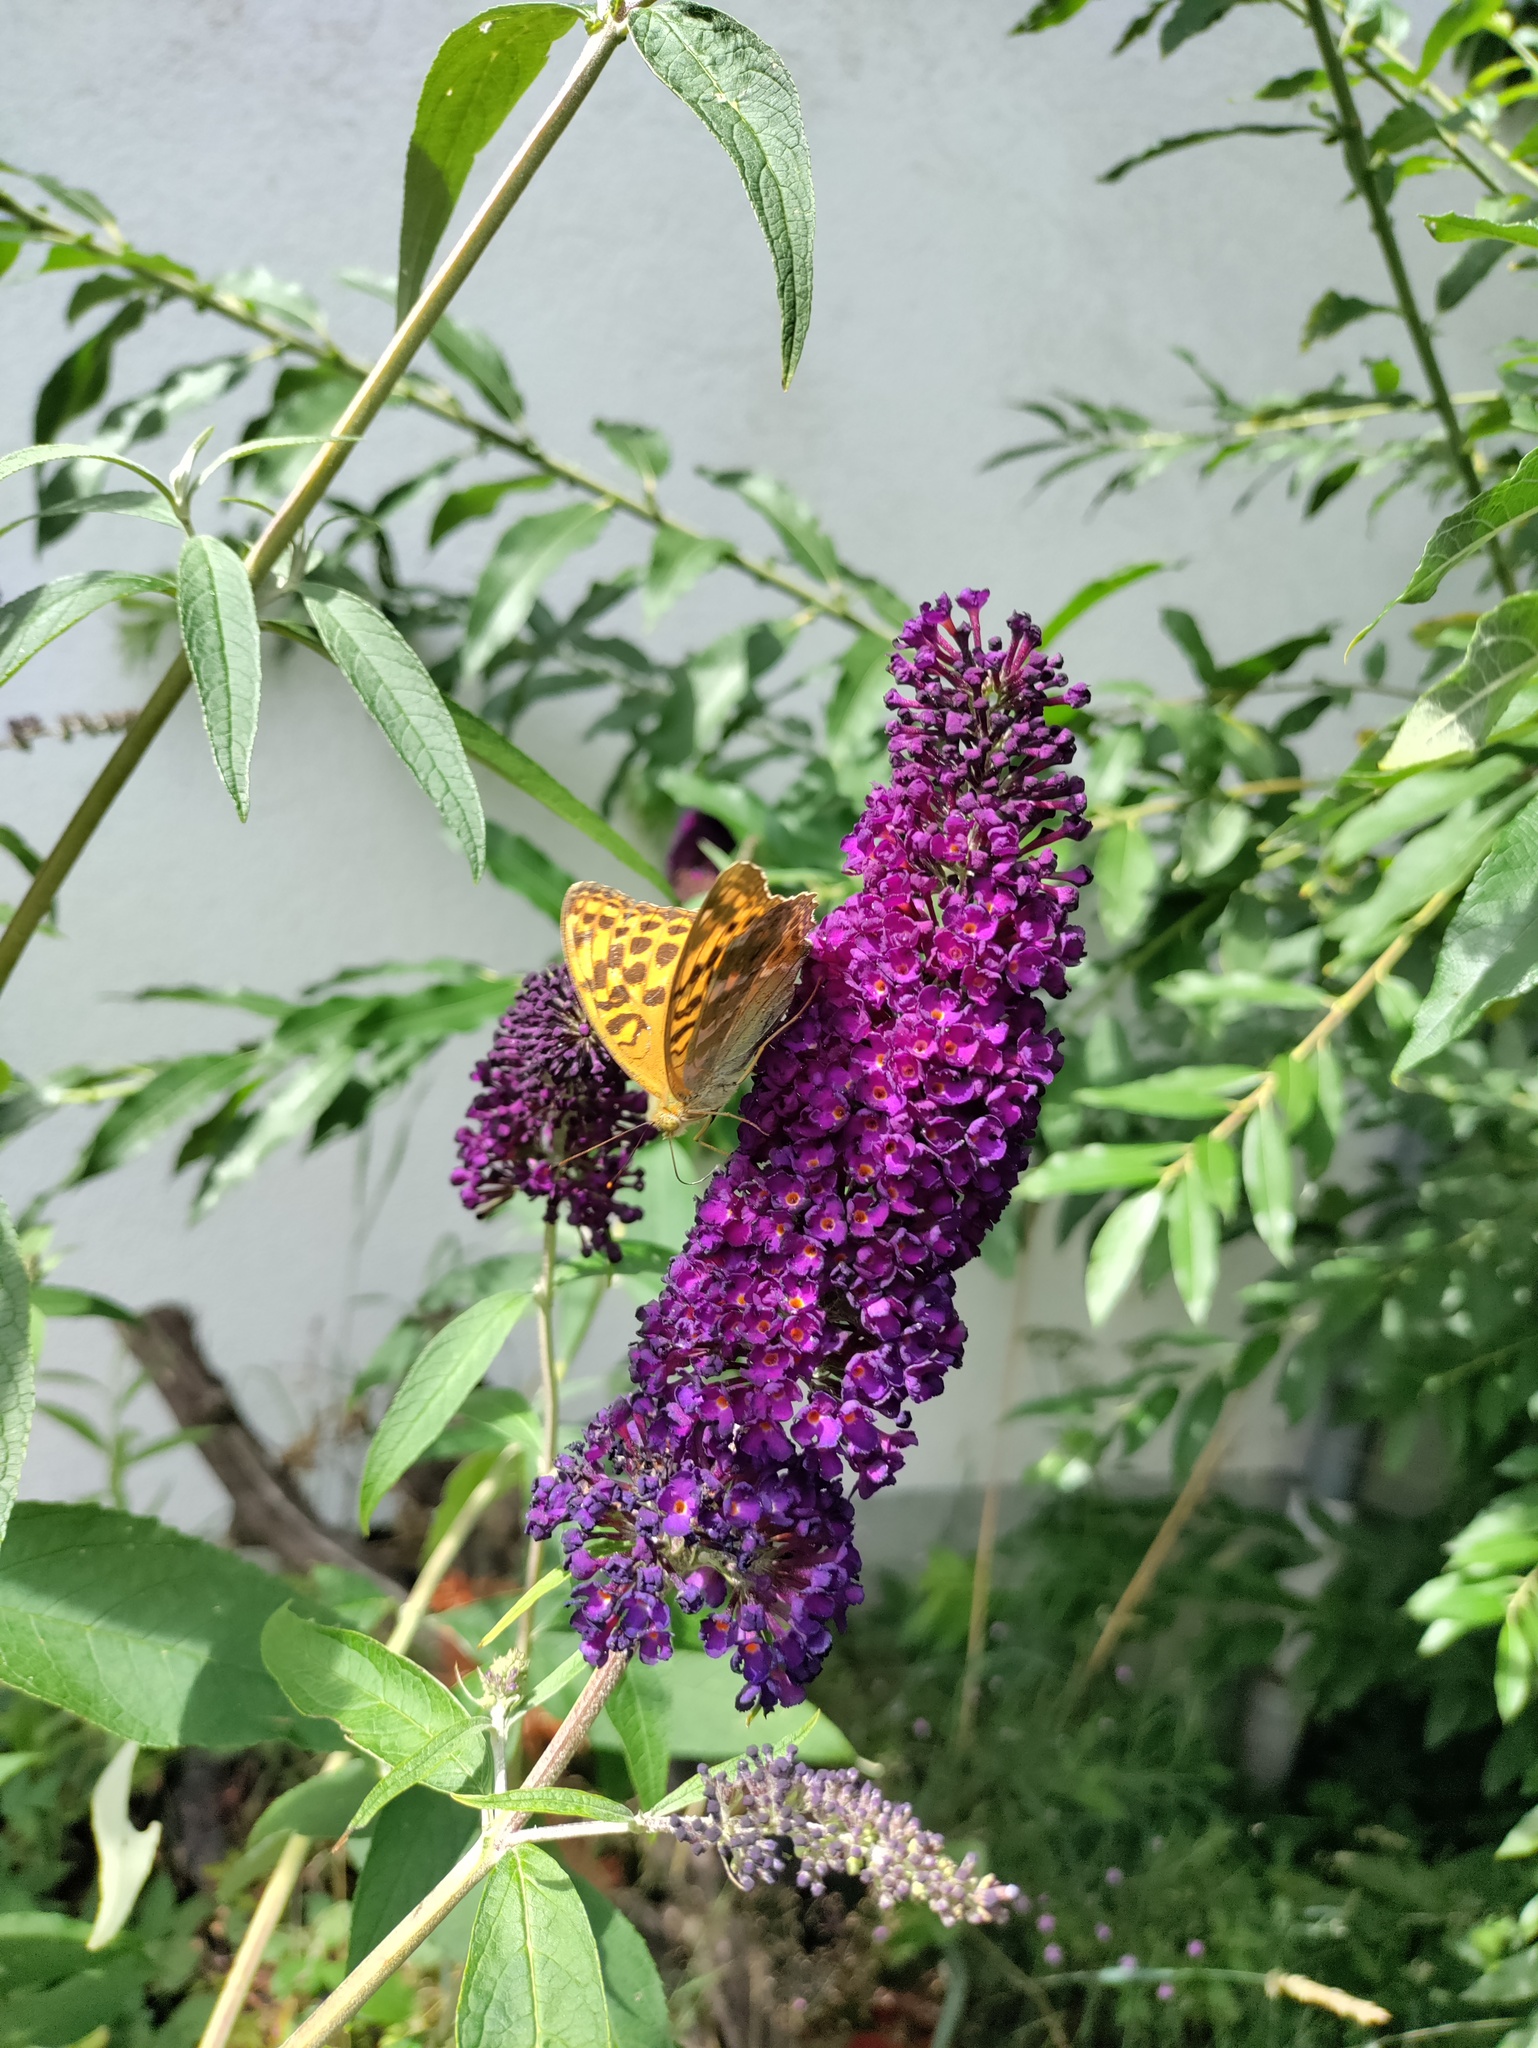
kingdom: Animalia
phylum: Arthropoda
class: Insecta
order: Lepidoptera
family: Nymphalidae
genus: Argynnis
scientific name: Argynnis paphia
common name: Silver-washed fritillary
